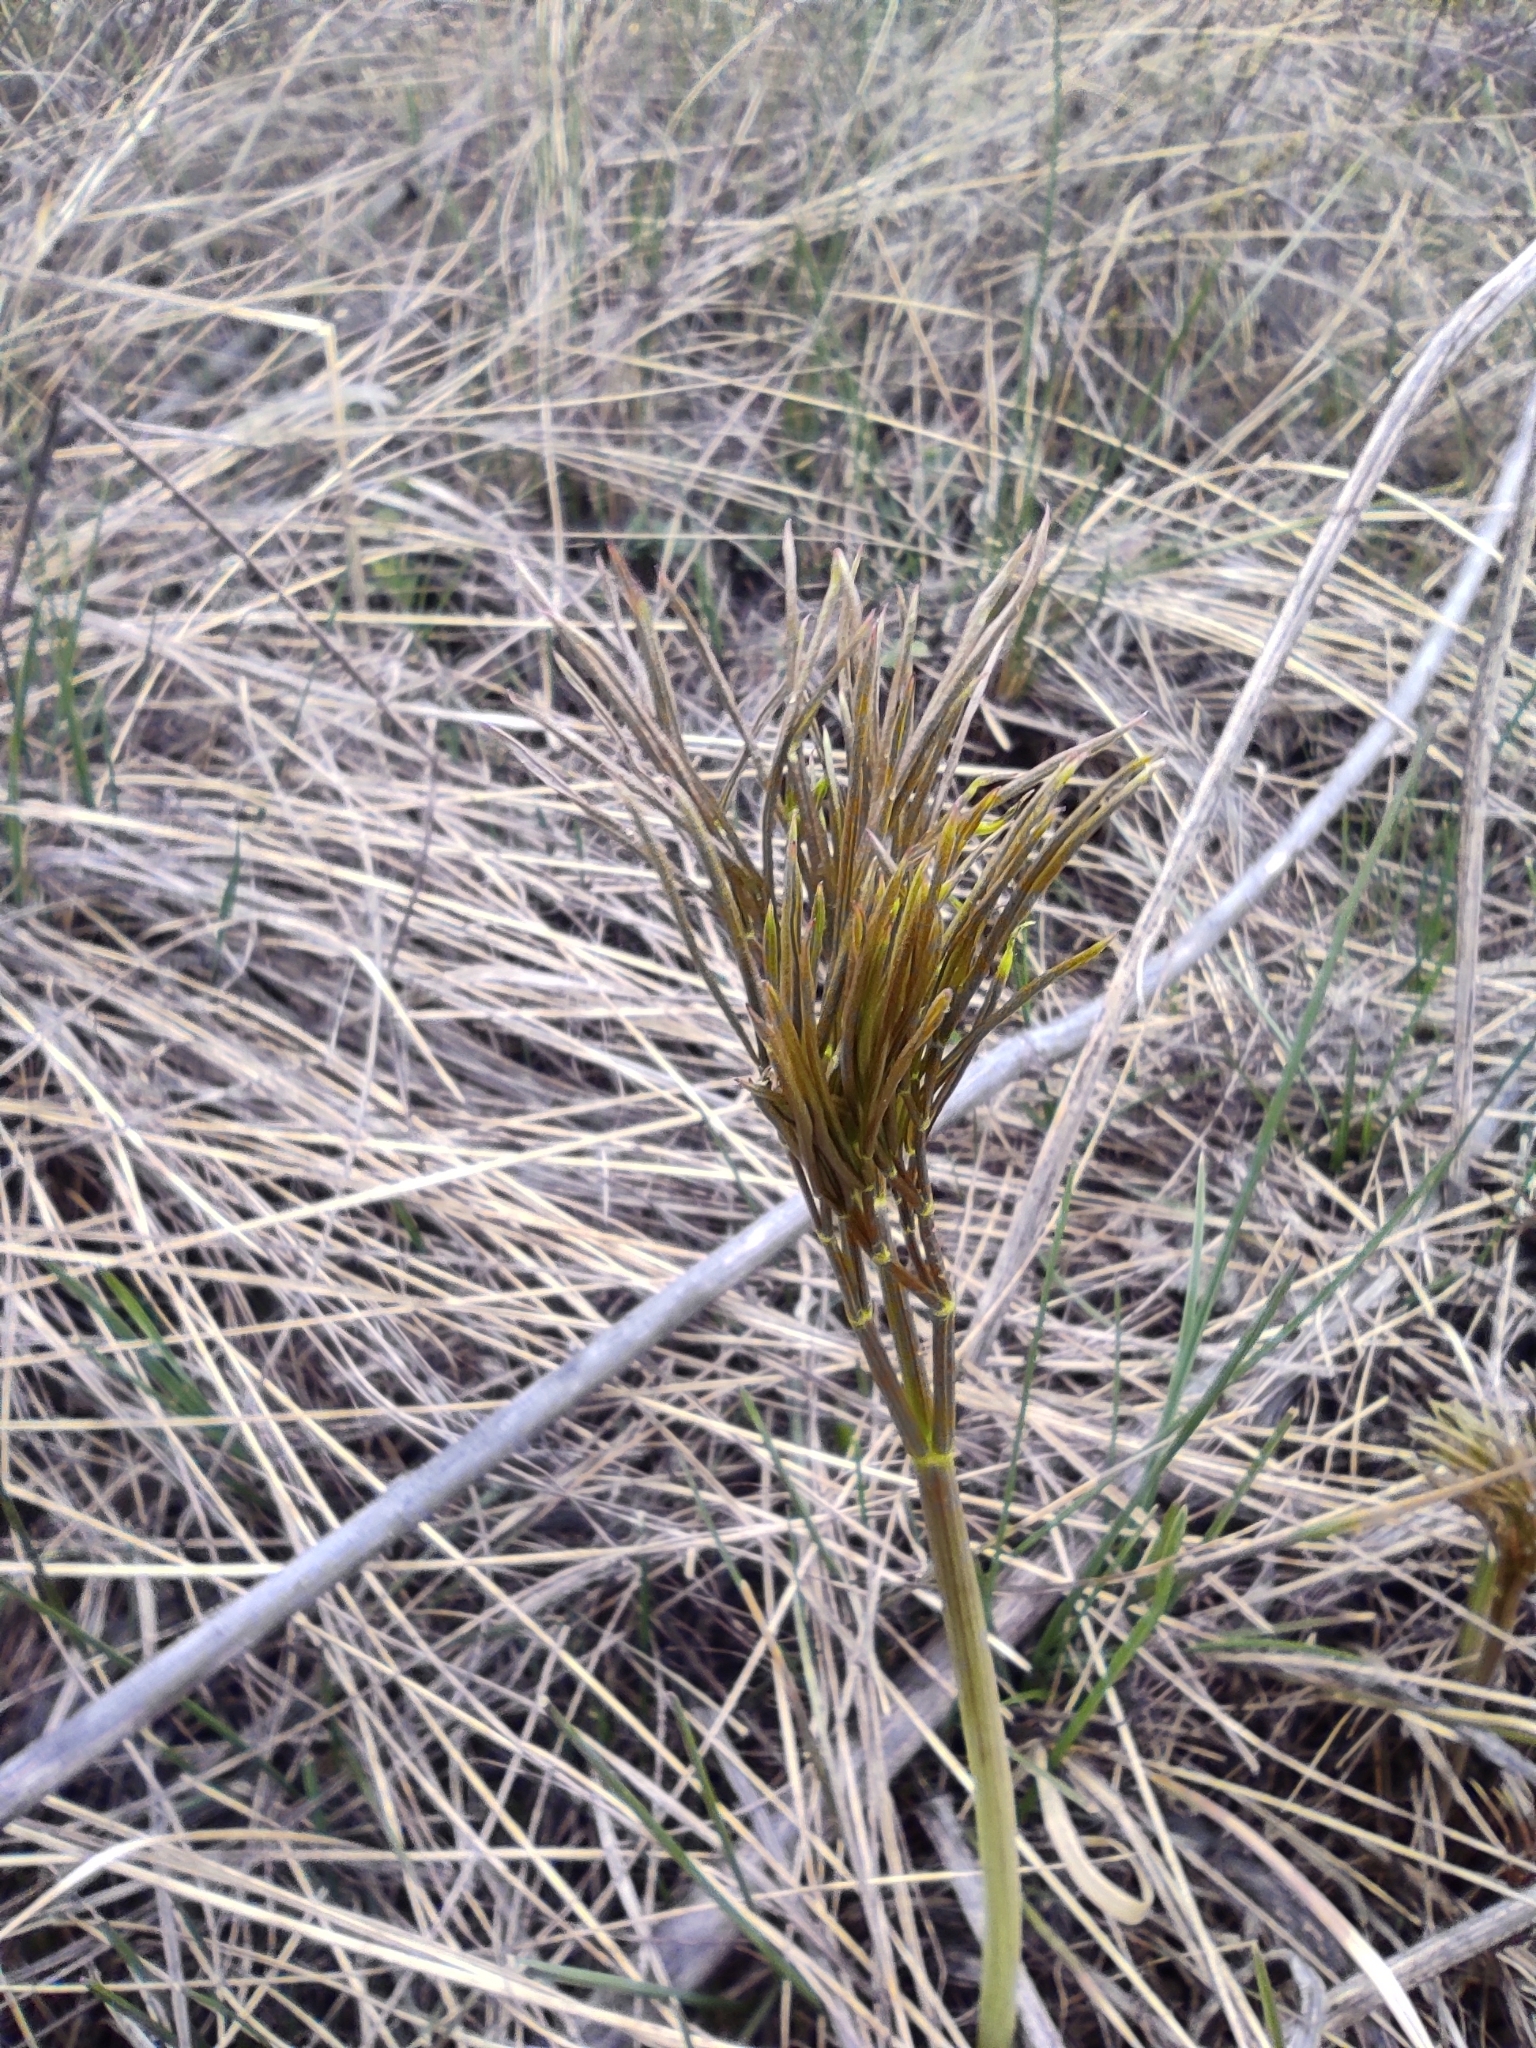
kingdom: Plantae
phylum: Tracheophyta
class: Magnoliopsida
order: Apiales
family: Apiaceae
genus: Peucedanum
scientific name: Peucedanum morisonii
